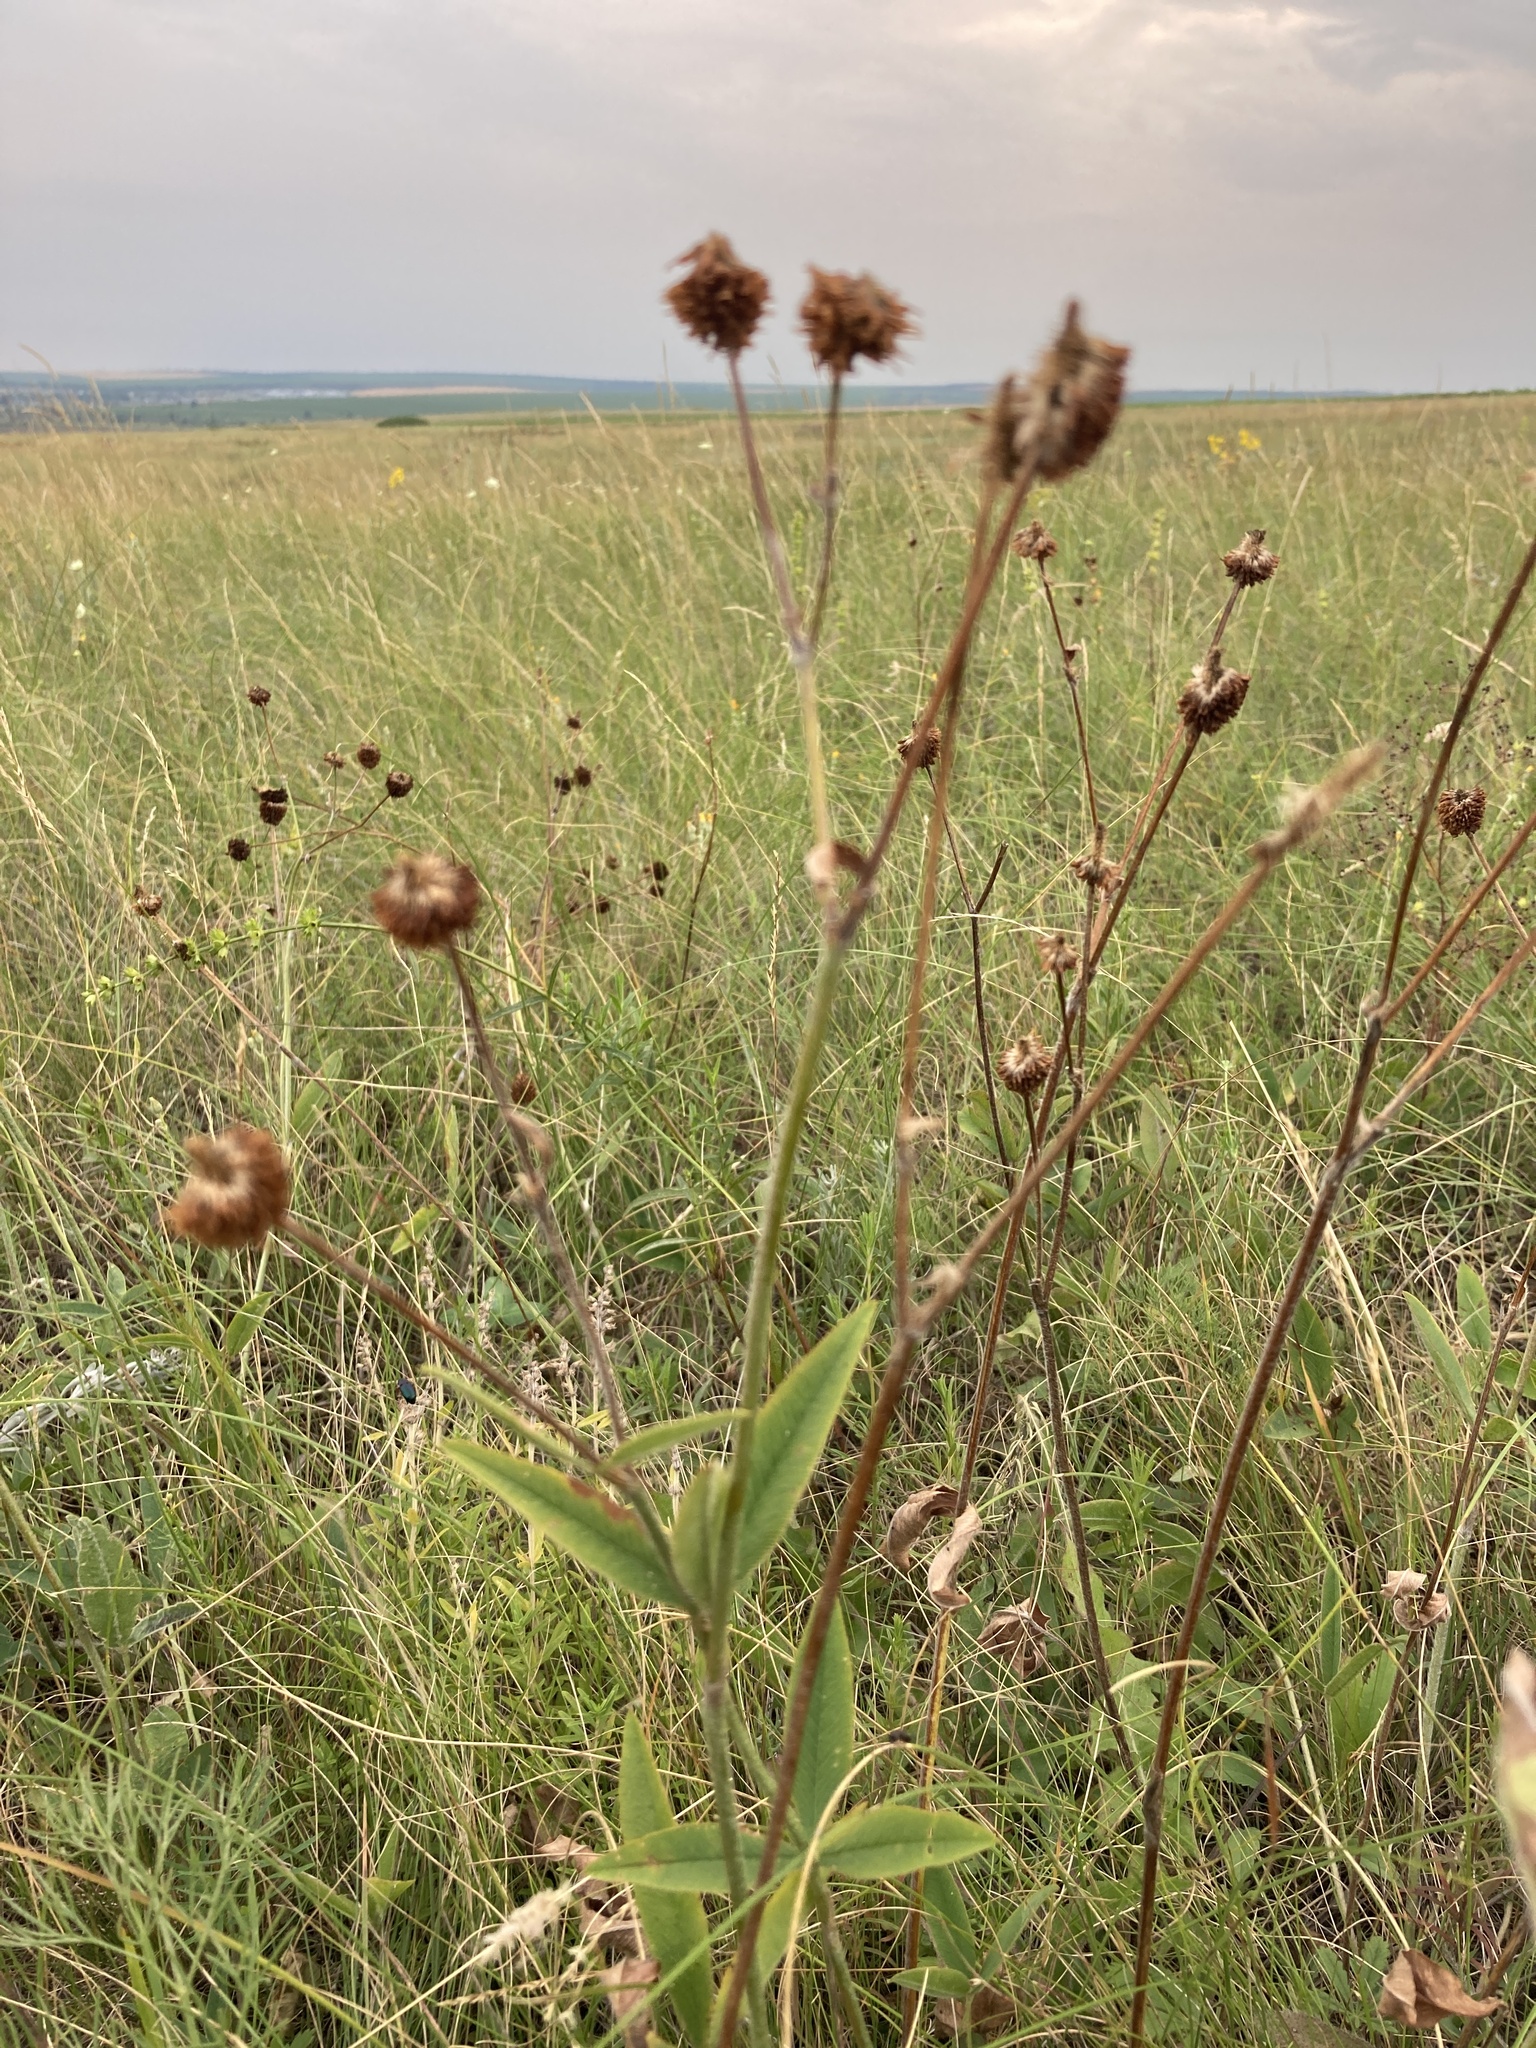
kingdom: Plantae
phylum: Tracheophyta
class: Magnoliopsida
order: Fabales
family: Fabaceae
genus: Trifolium
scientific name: Trifolium montanum
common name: Mountain clover
